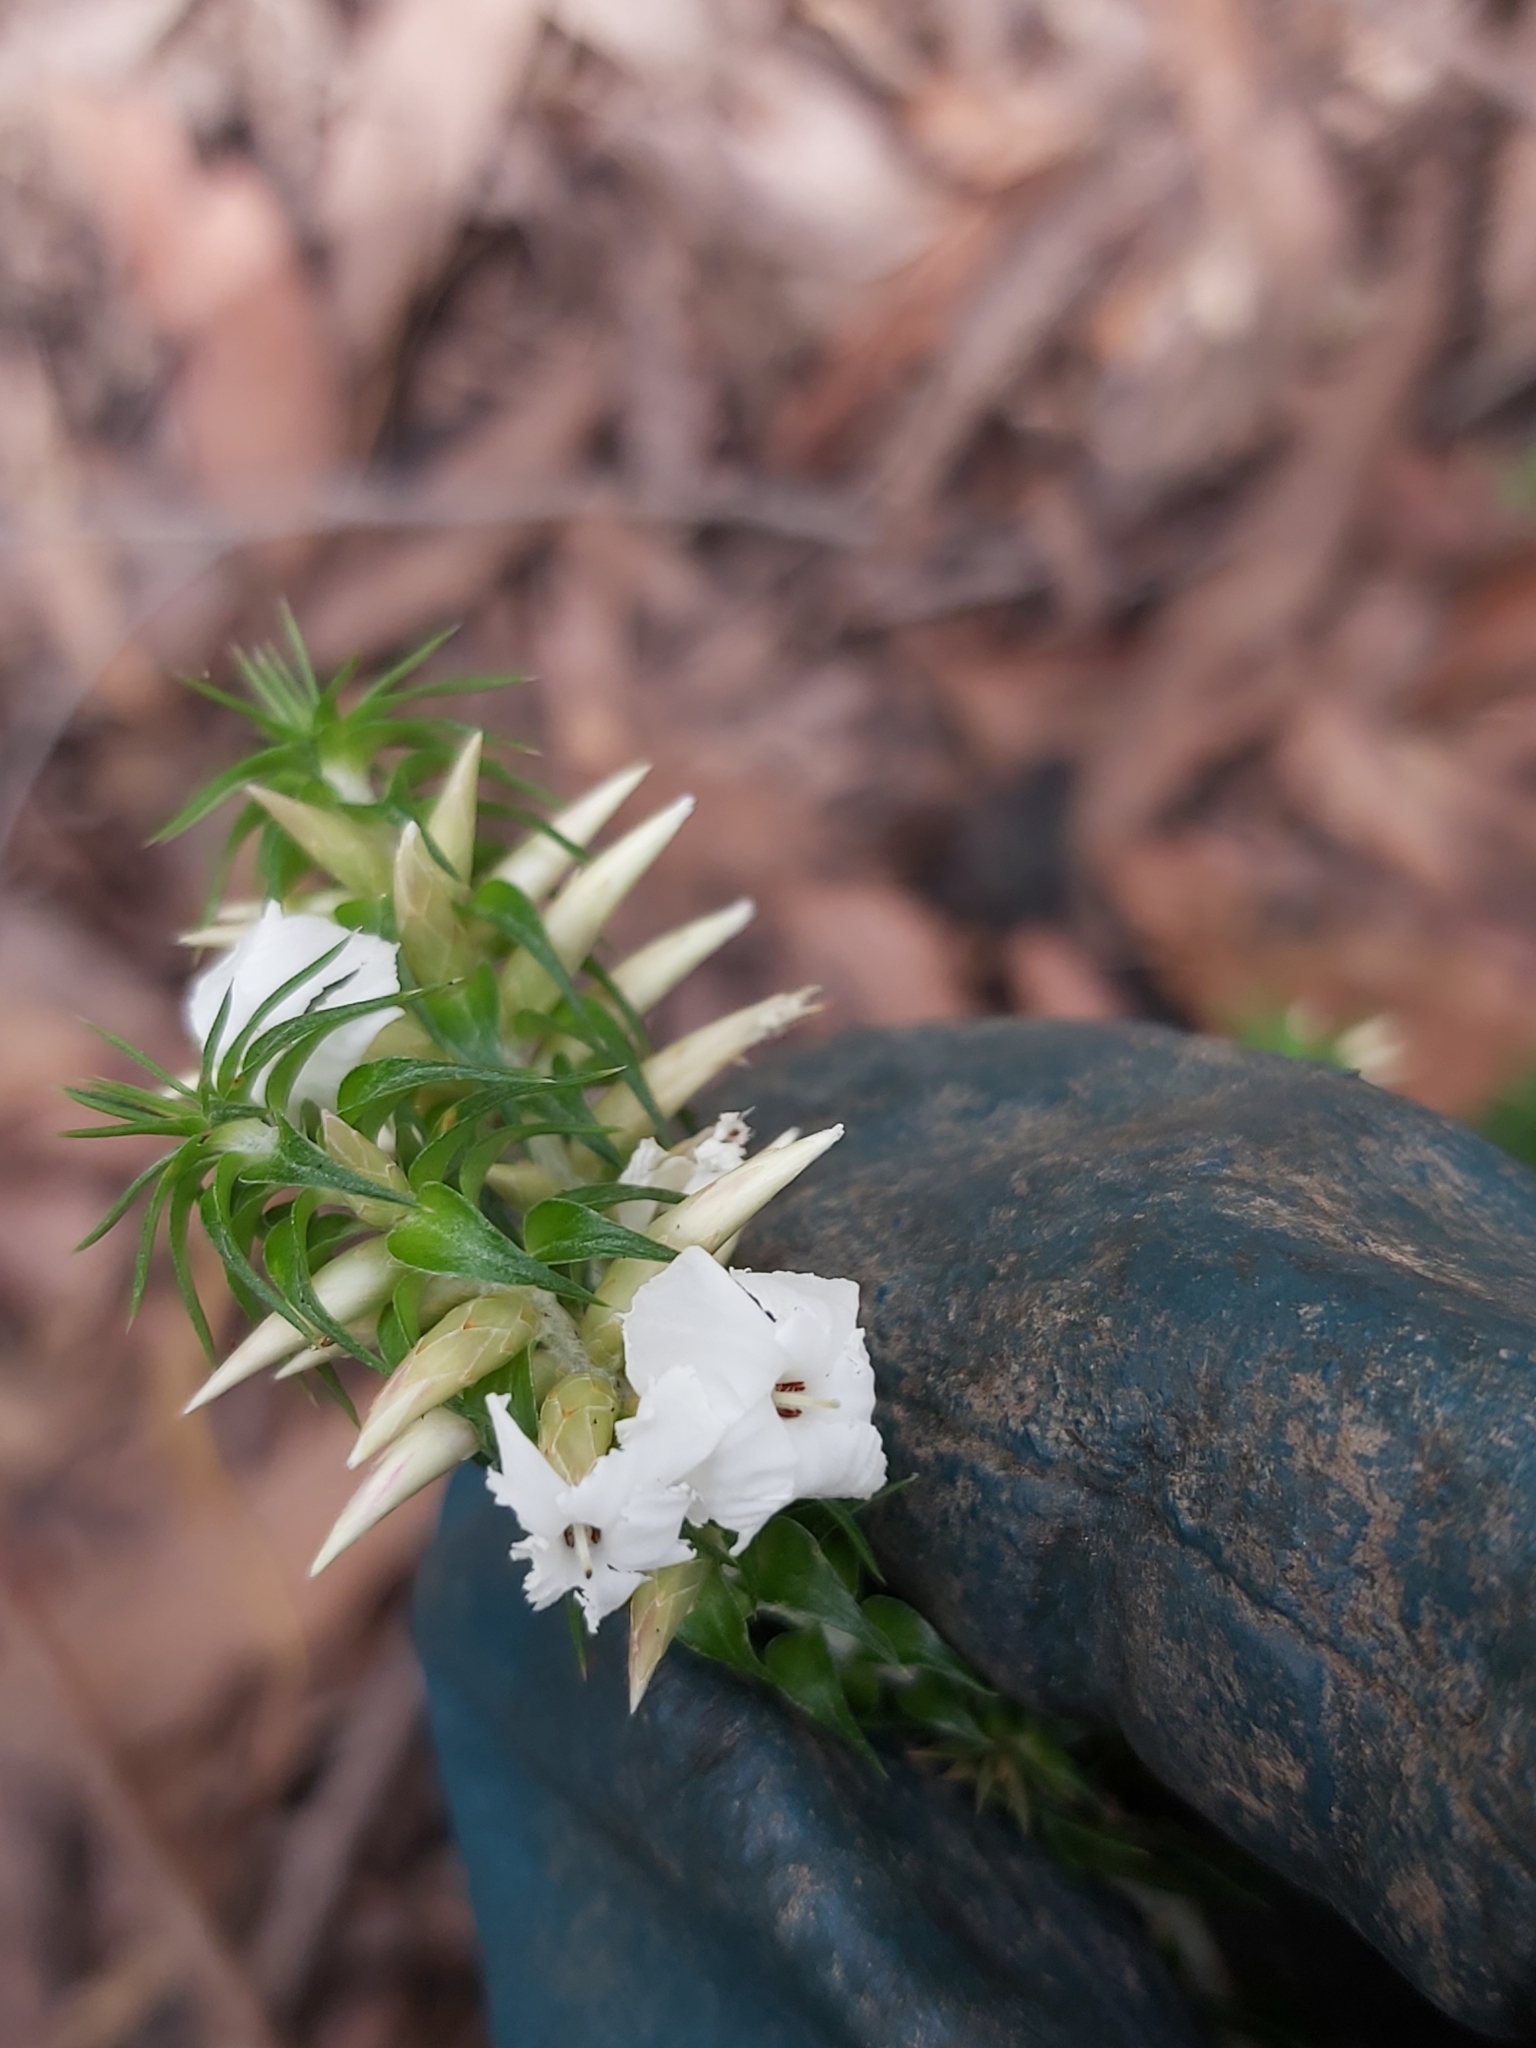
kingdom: Plantae
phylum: Tracheophyta
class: Magnoliopsida
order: Ericales
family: Ericaceae
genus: Woollsia
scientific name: Woollsia pungens
